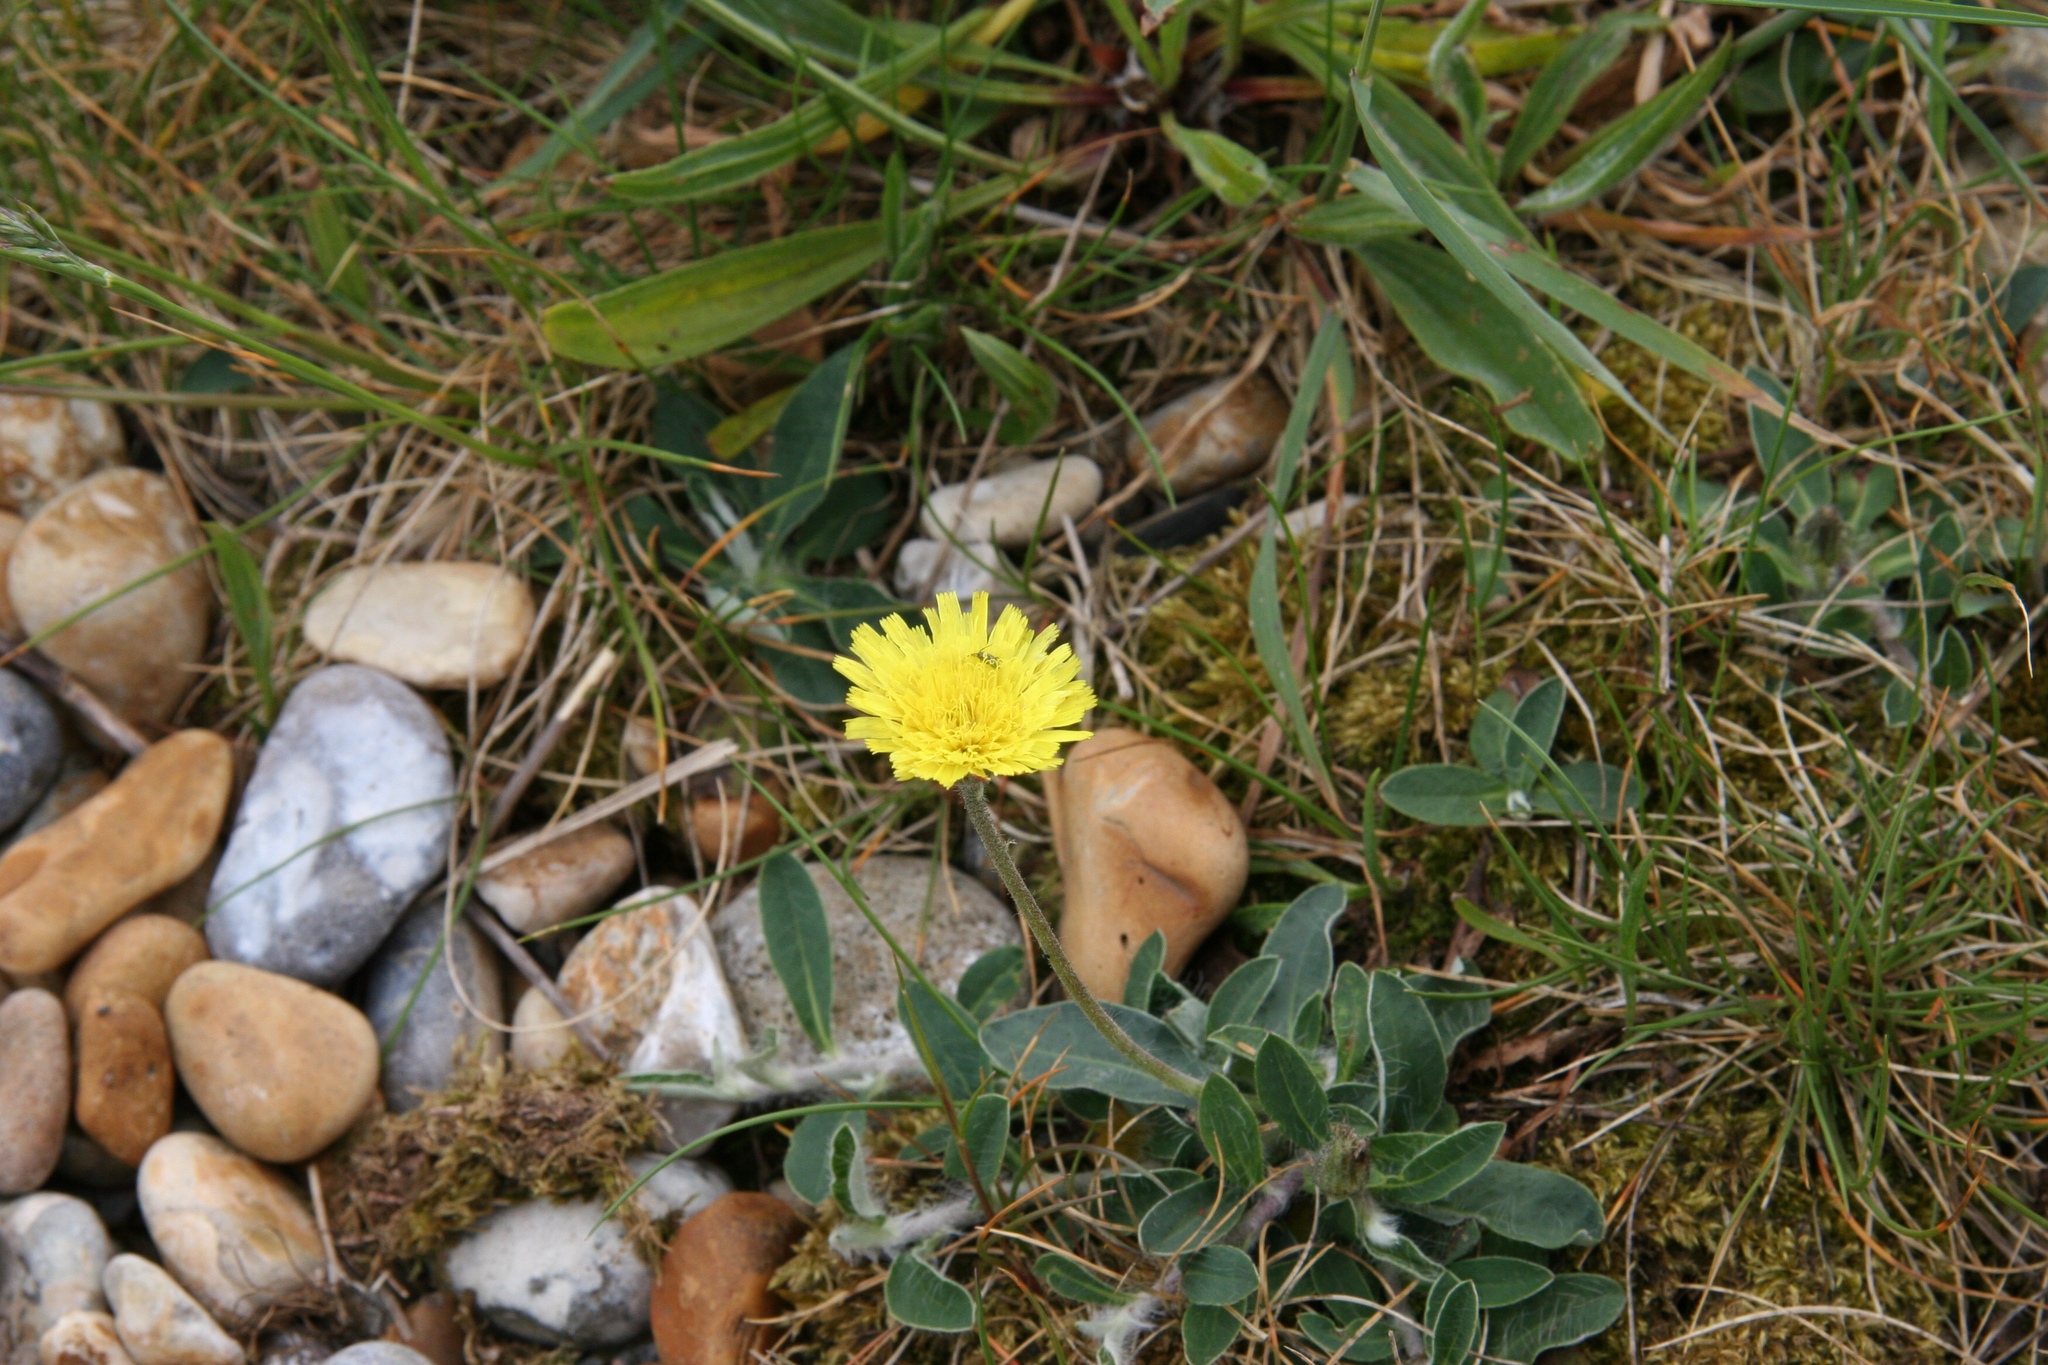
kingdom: Plantae
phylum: Tracheophyta
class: Magnoliopsida
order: Asterales
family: Asteraceae
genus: Pilosella
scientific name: Pilosella officinarum
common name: Mouse-ear hawkweed
